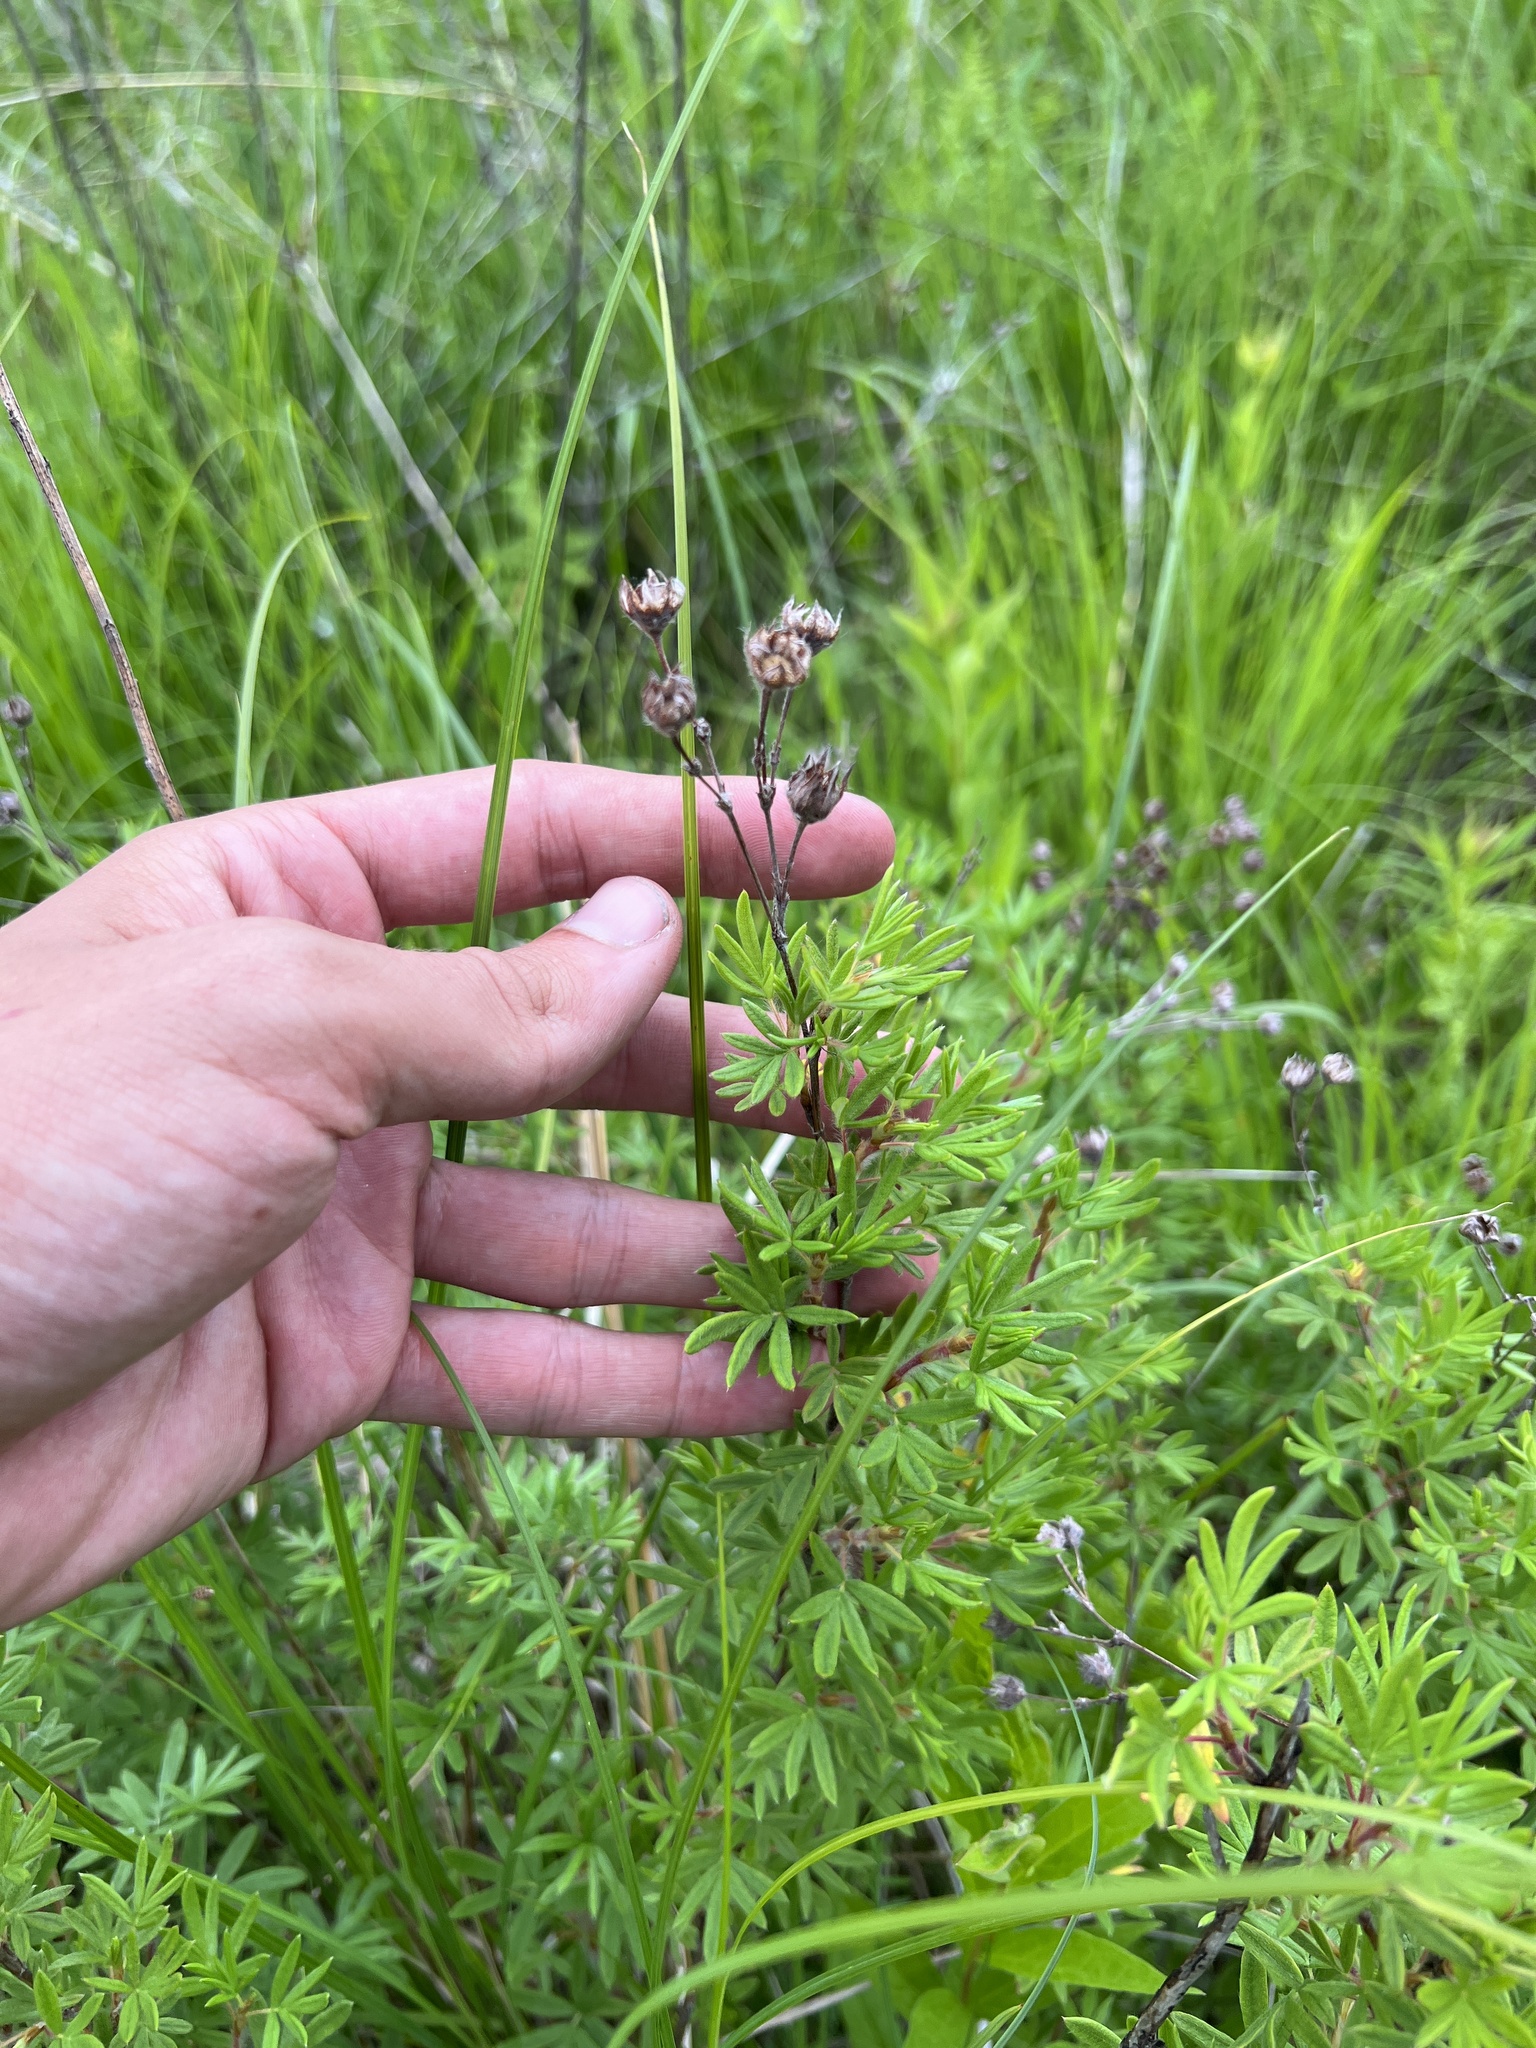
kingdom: Plantae
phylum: Tracheophyta
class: Magnoliopsida
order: Rosales
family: Rosaceae
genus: Dasiphora
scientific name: Dasiphora fruticosa
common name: Shrubby cinquefoil
